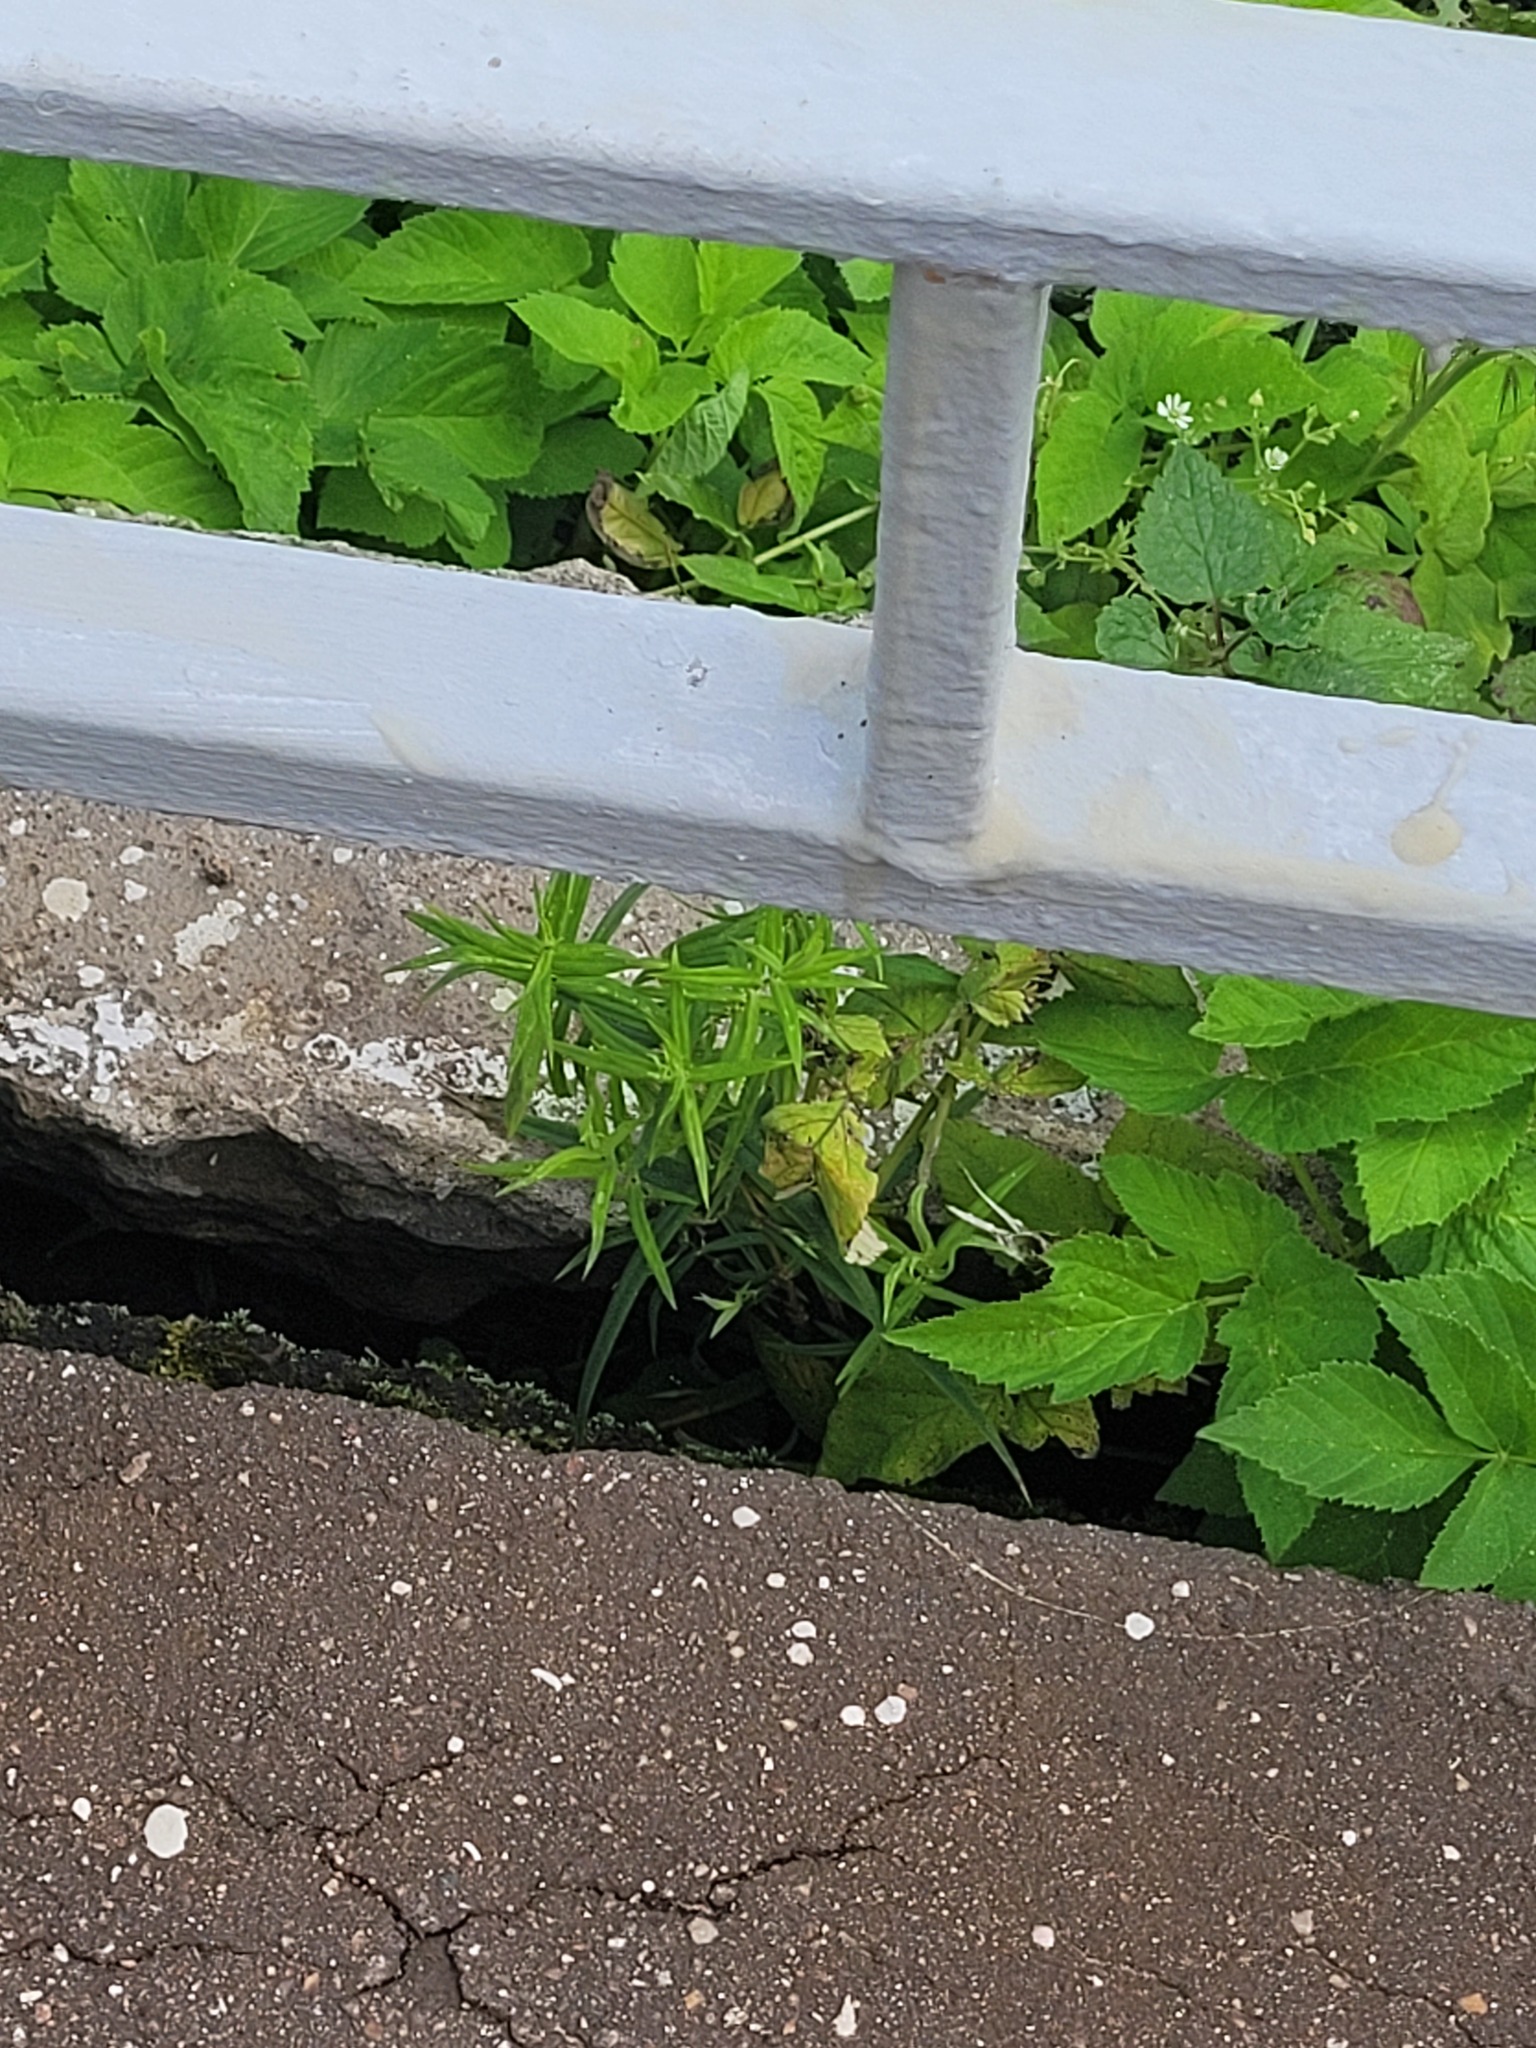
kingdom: Plantae
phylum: Tracheophyta
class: Magnoliopsida
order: Caryophyllales
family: Caryophyllaceae
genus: Rabelera
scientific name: Rabelera holostea
